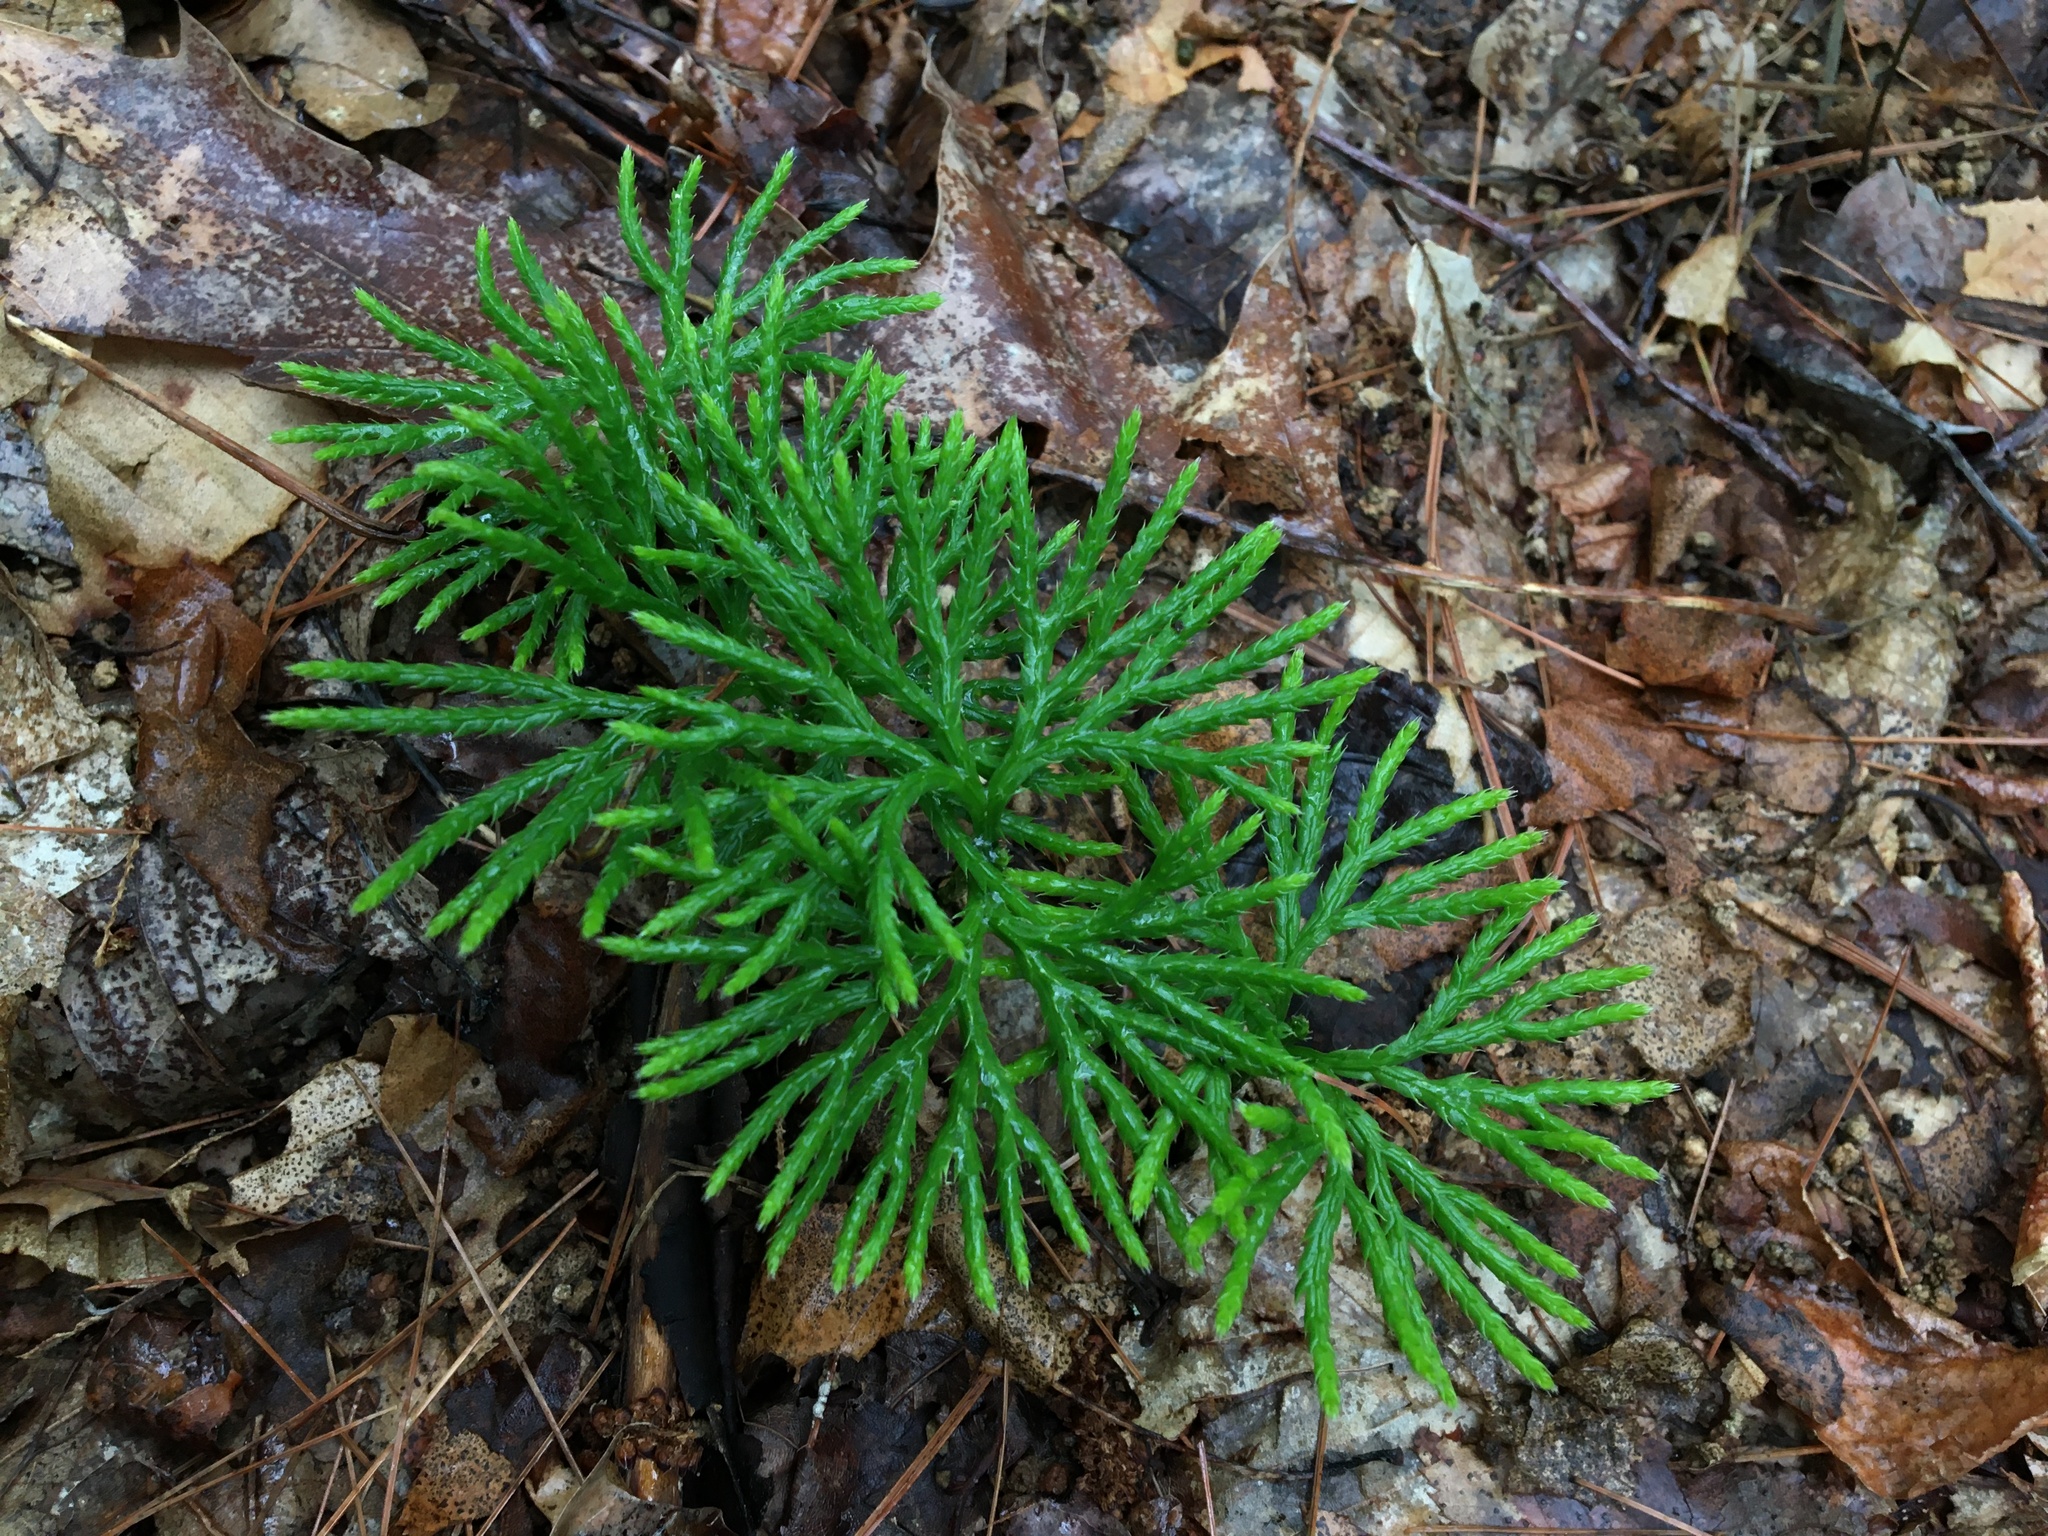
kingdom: Plantae
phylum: Tracheophyta
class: Lycopodiopsida
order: Lycopodiales
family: Lycopodiaceae
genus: Diphasiastrum
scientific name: Diphasiastrum digitatum
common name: Southern running-pine
